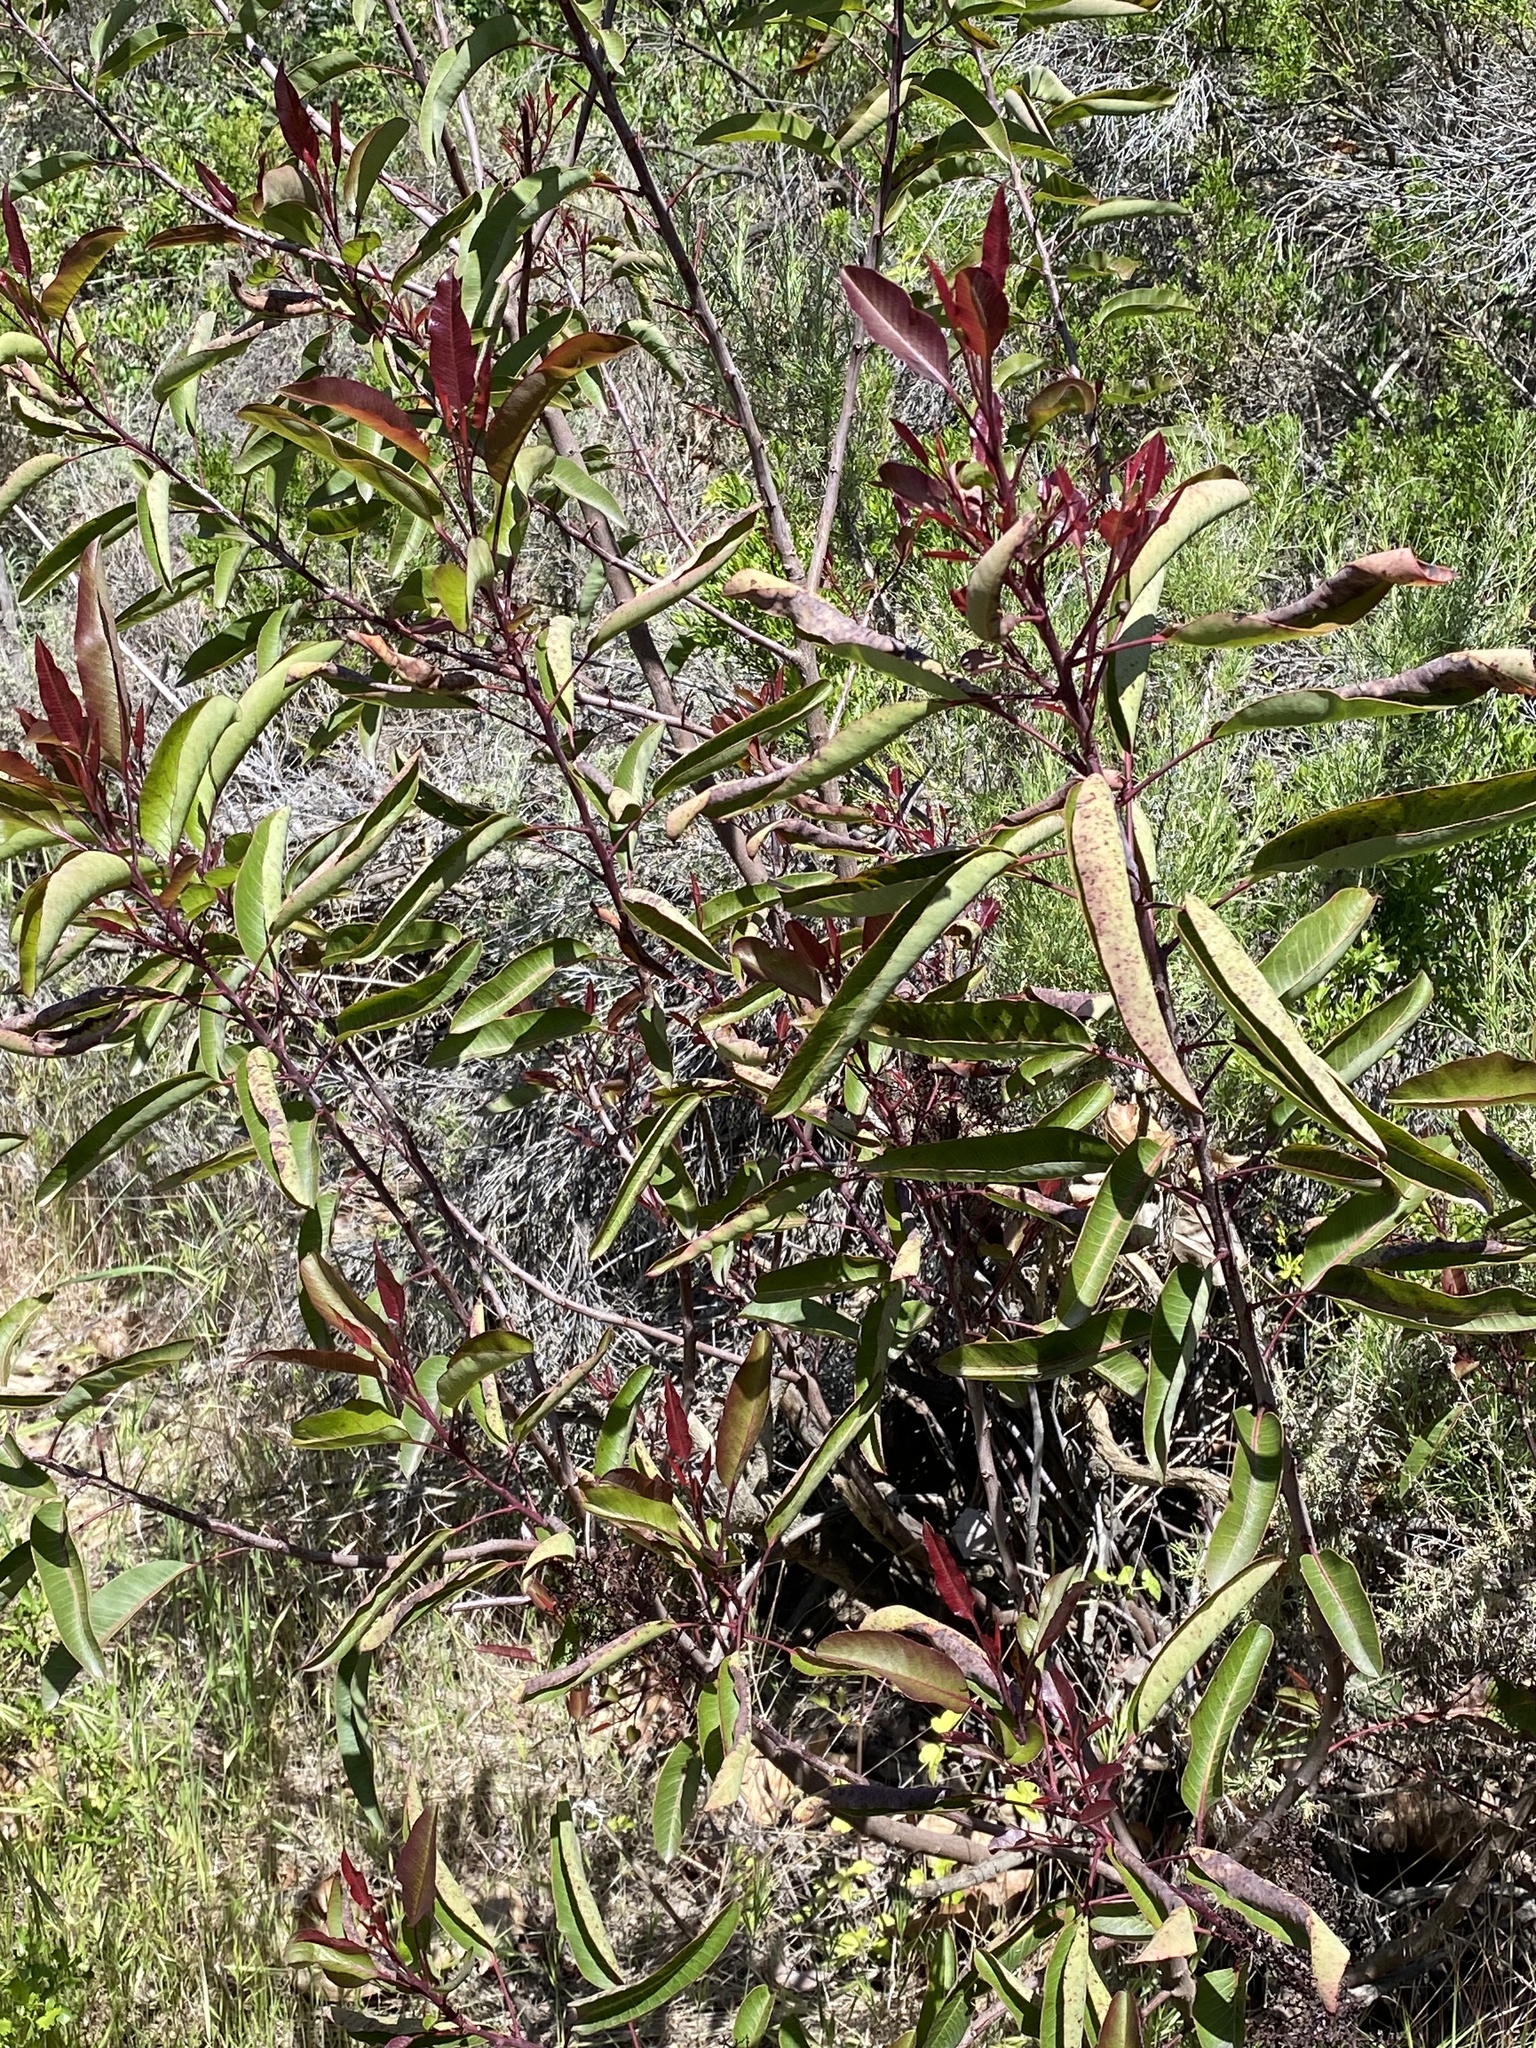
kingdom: Plantae
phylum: Tracheophyta
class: Magnoliopsida
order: Sapindales
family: Anacardiaceae
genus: Malosma
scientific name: Malosma laurina
